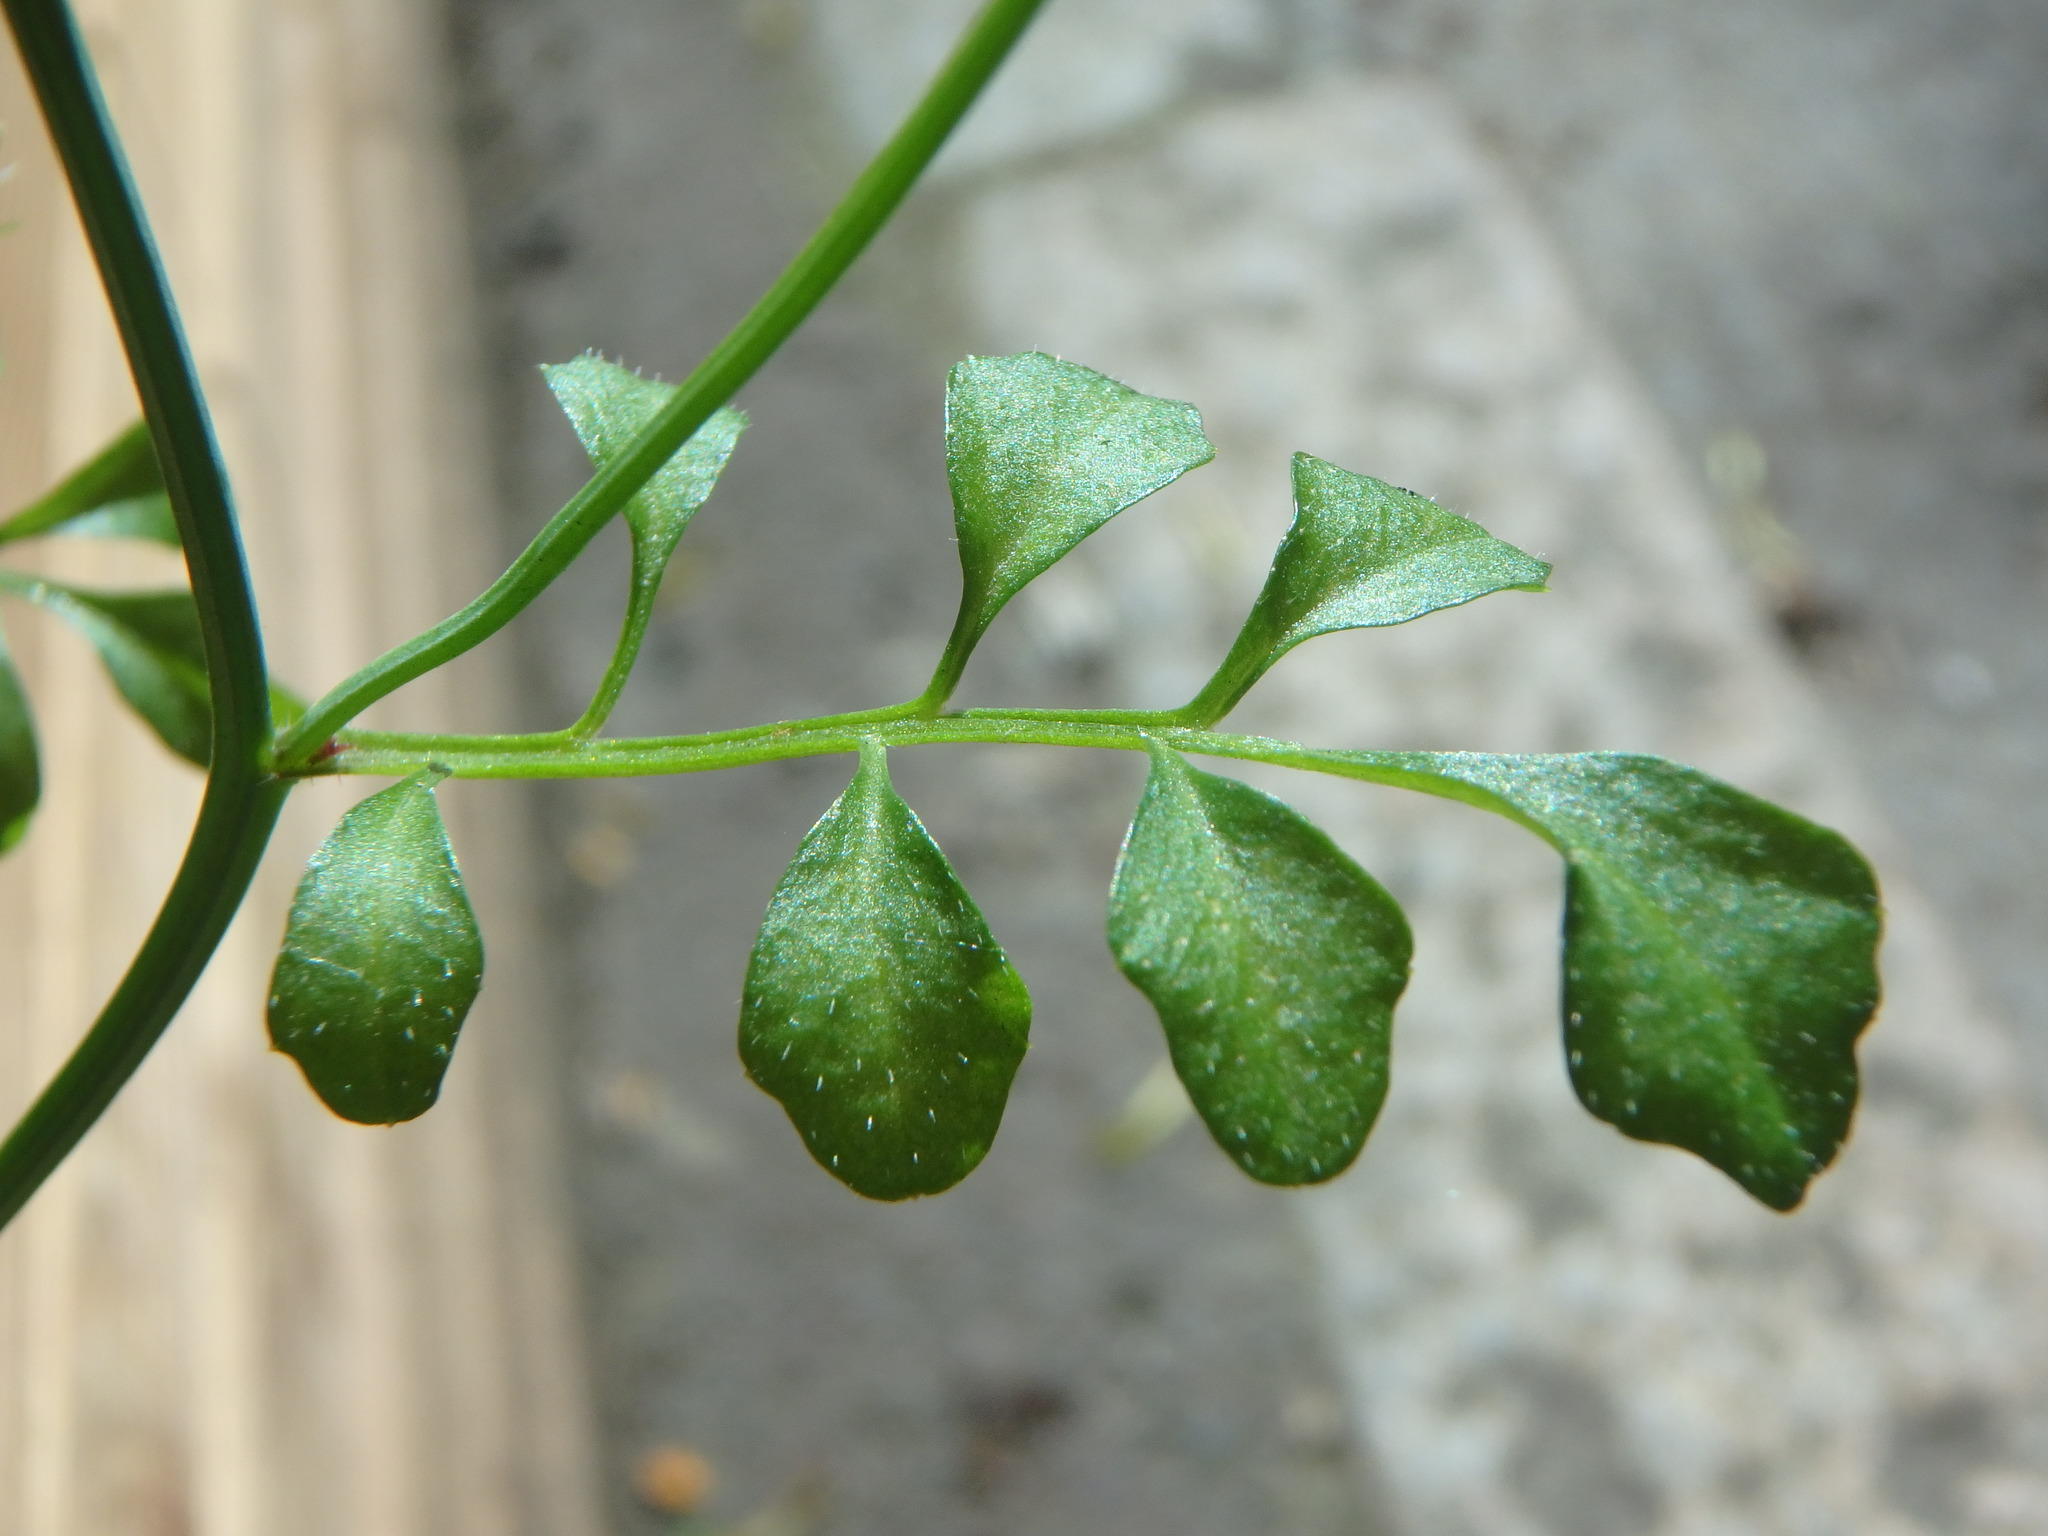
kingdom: Plantae
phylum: Tracheophyta
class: Magnoliopsida
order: Brassicales
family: Brassicaceae
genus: Cardamine
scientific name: Cardamine hirsuta
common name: Hairy bittercress
